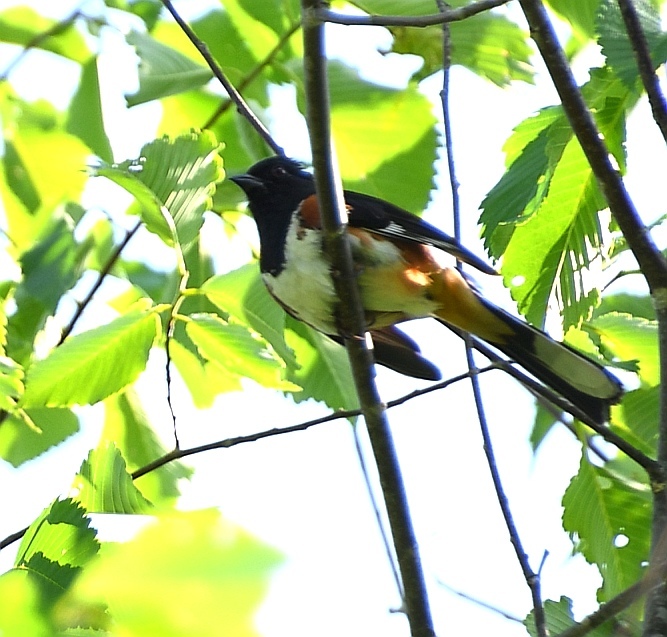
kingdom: Animalia
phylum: Chordata
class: Aves
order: Passeriformes
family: Passerellidae
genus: Pipilo
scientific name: Pipilo erythrophthalmus
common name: Eastern towhee
